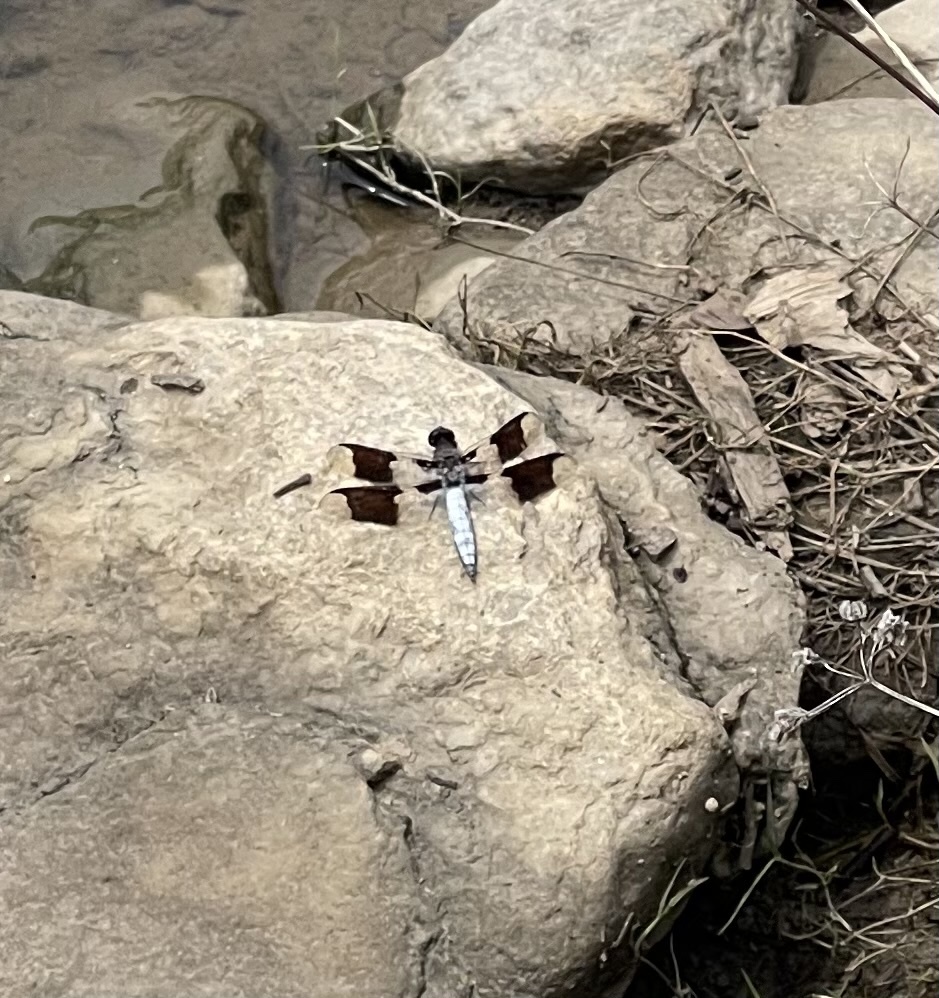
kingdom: Animalia
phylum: Arthropoda
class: Insecta
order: Odonata
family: Libellulidae
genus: Plathemis
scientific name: Plathemis lydia
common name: Common whitetail
